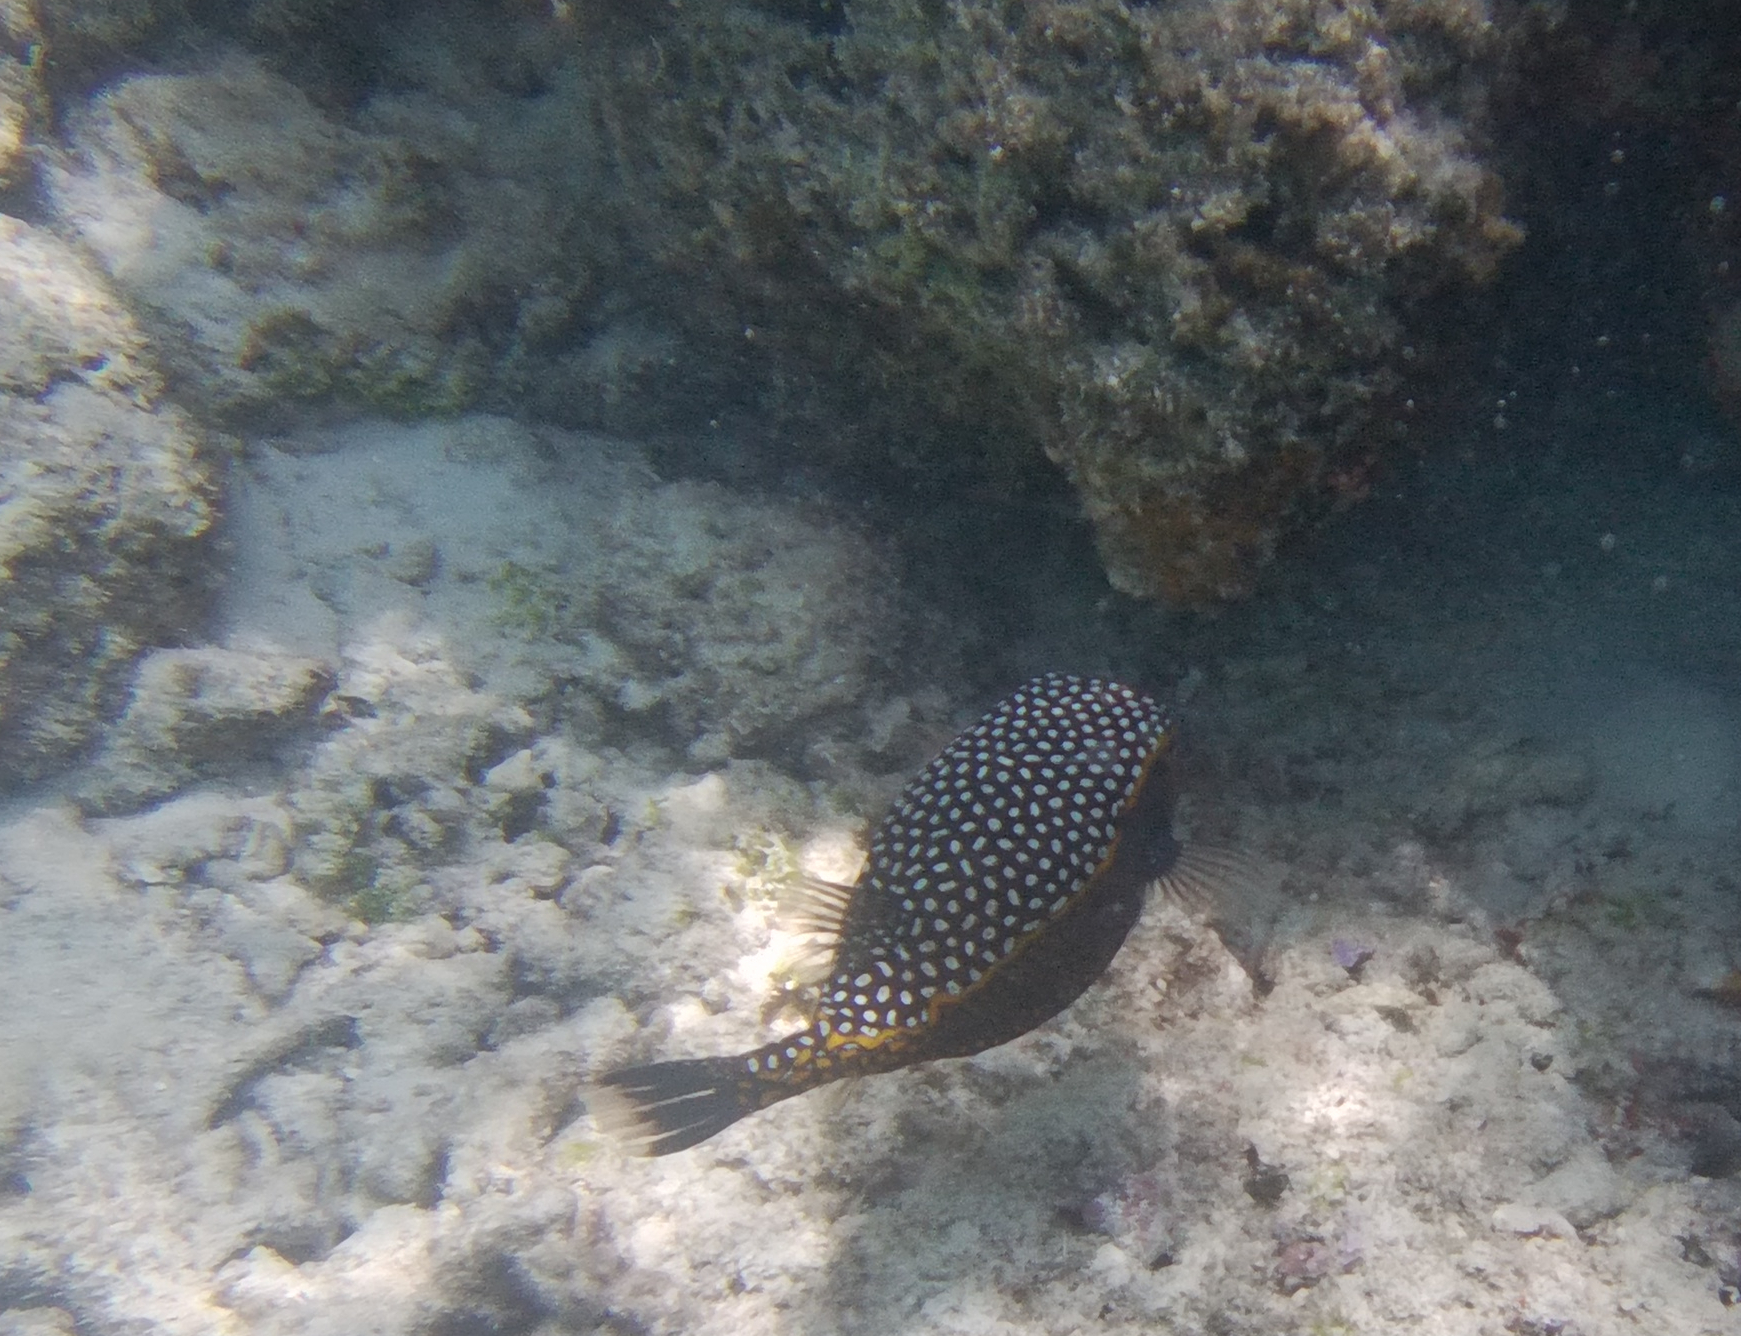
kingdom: Animalia
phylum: Chordata
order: Tetraodontiformes
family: Ostraciidae
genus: Ostracion
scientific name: Ostracion meleagris
